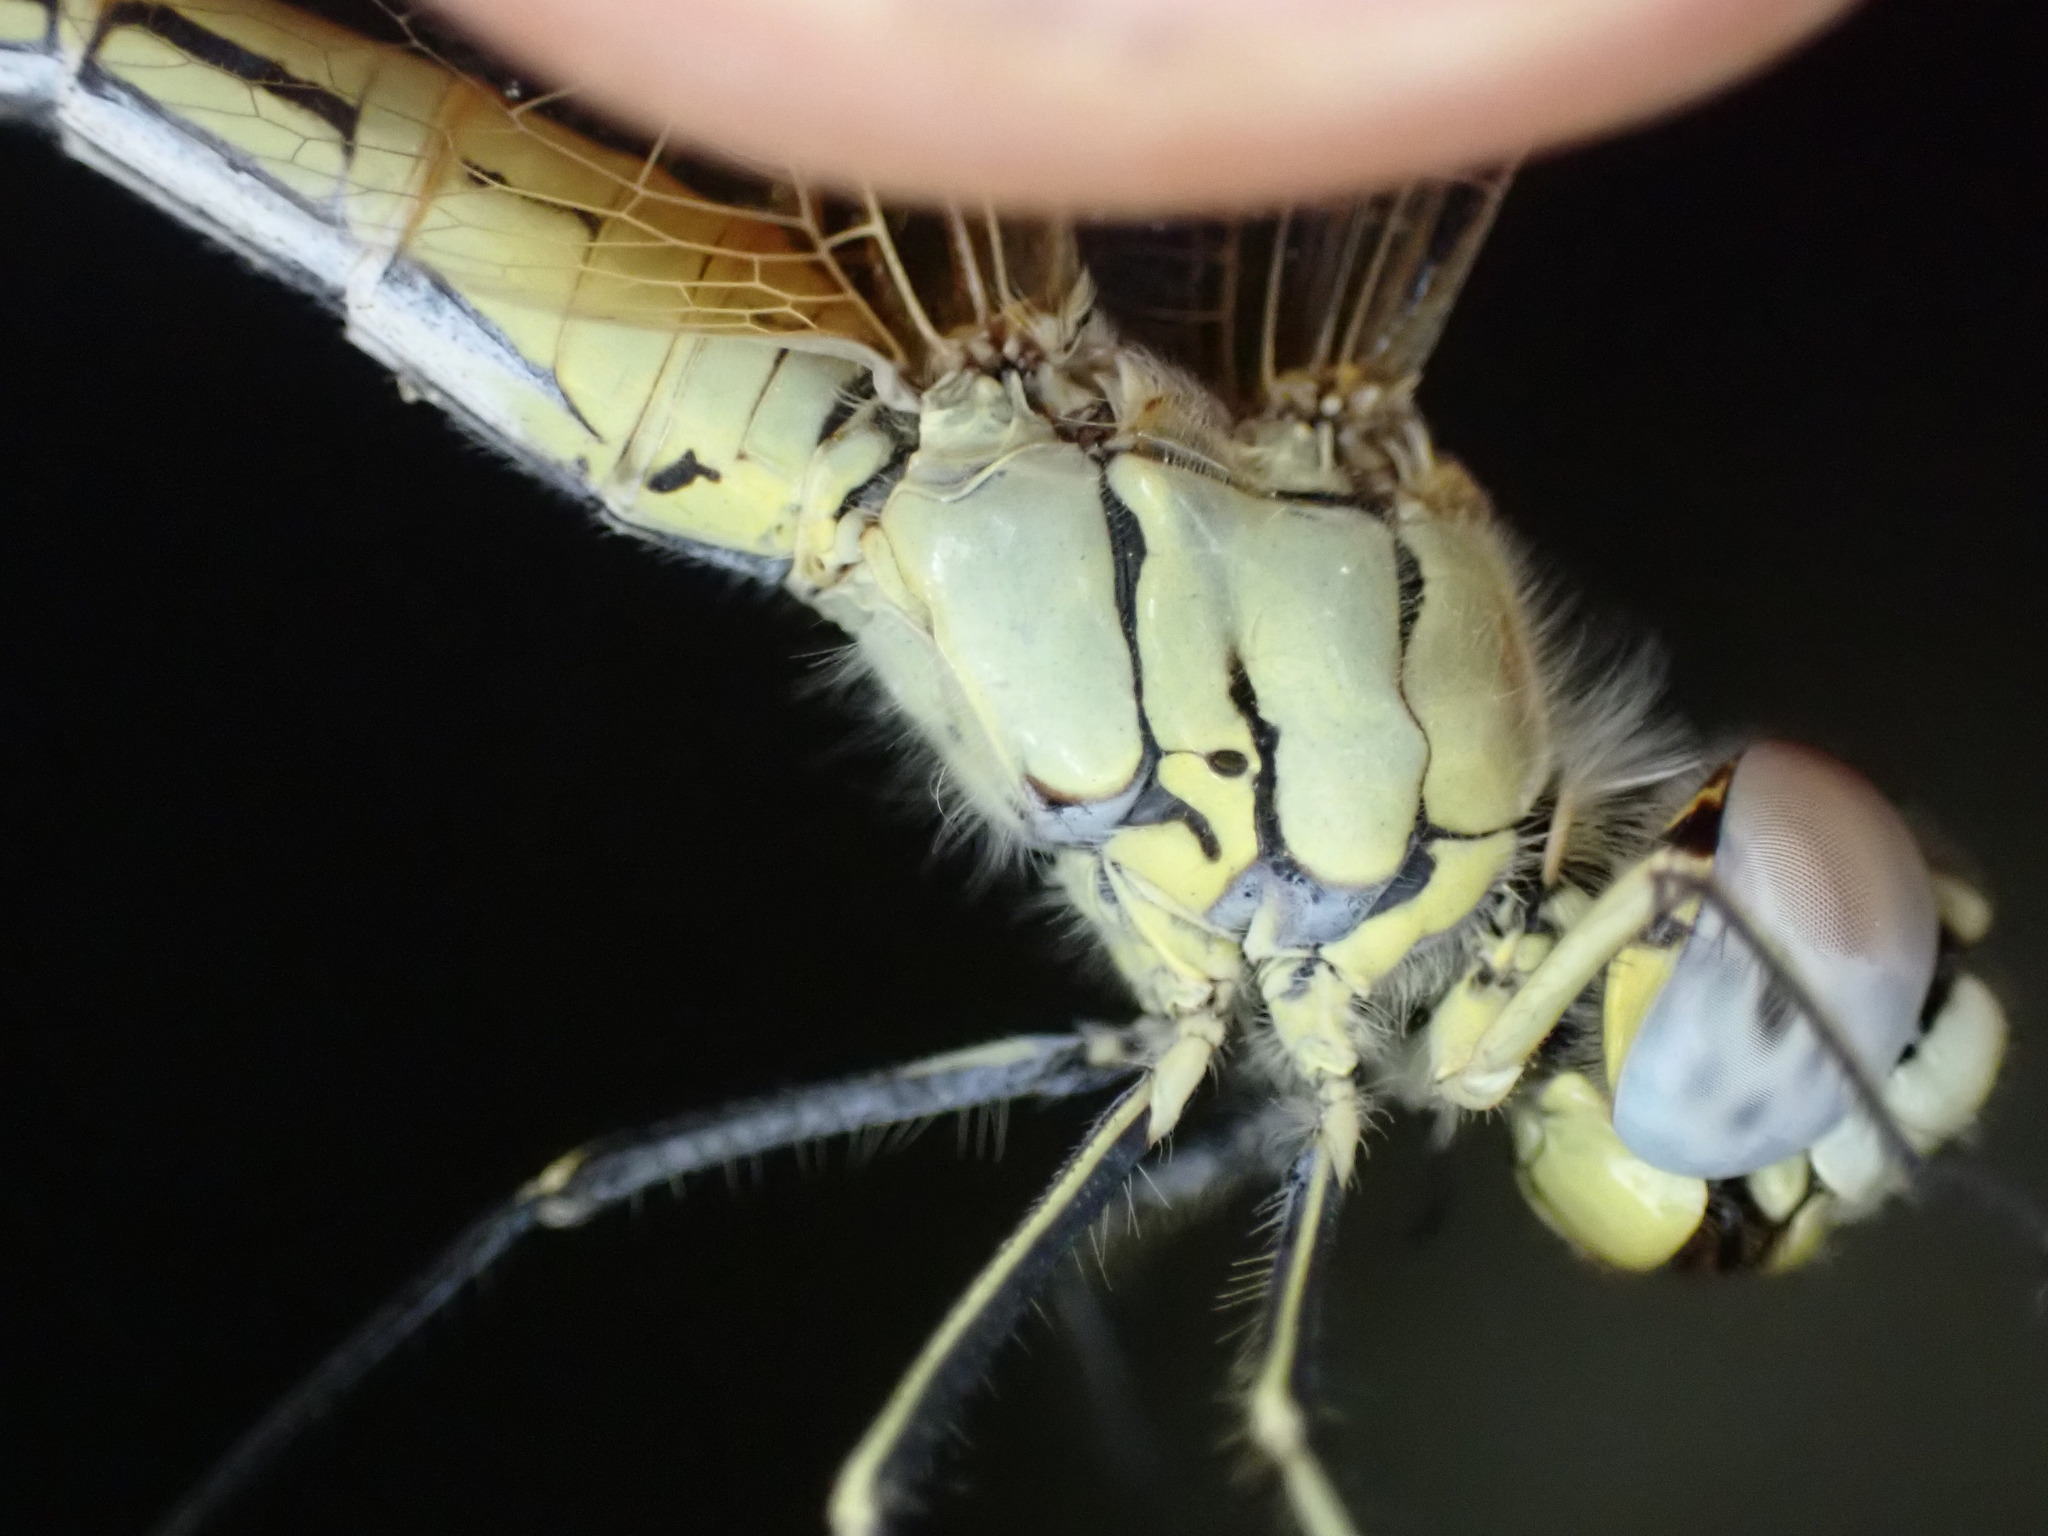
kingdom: Animalia
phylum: Arthropoda
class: Insecta
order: Odonata
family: Libellulidae
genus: Sympetrum
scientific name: Sympetrum fonscolombii
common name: Red-veined darter
